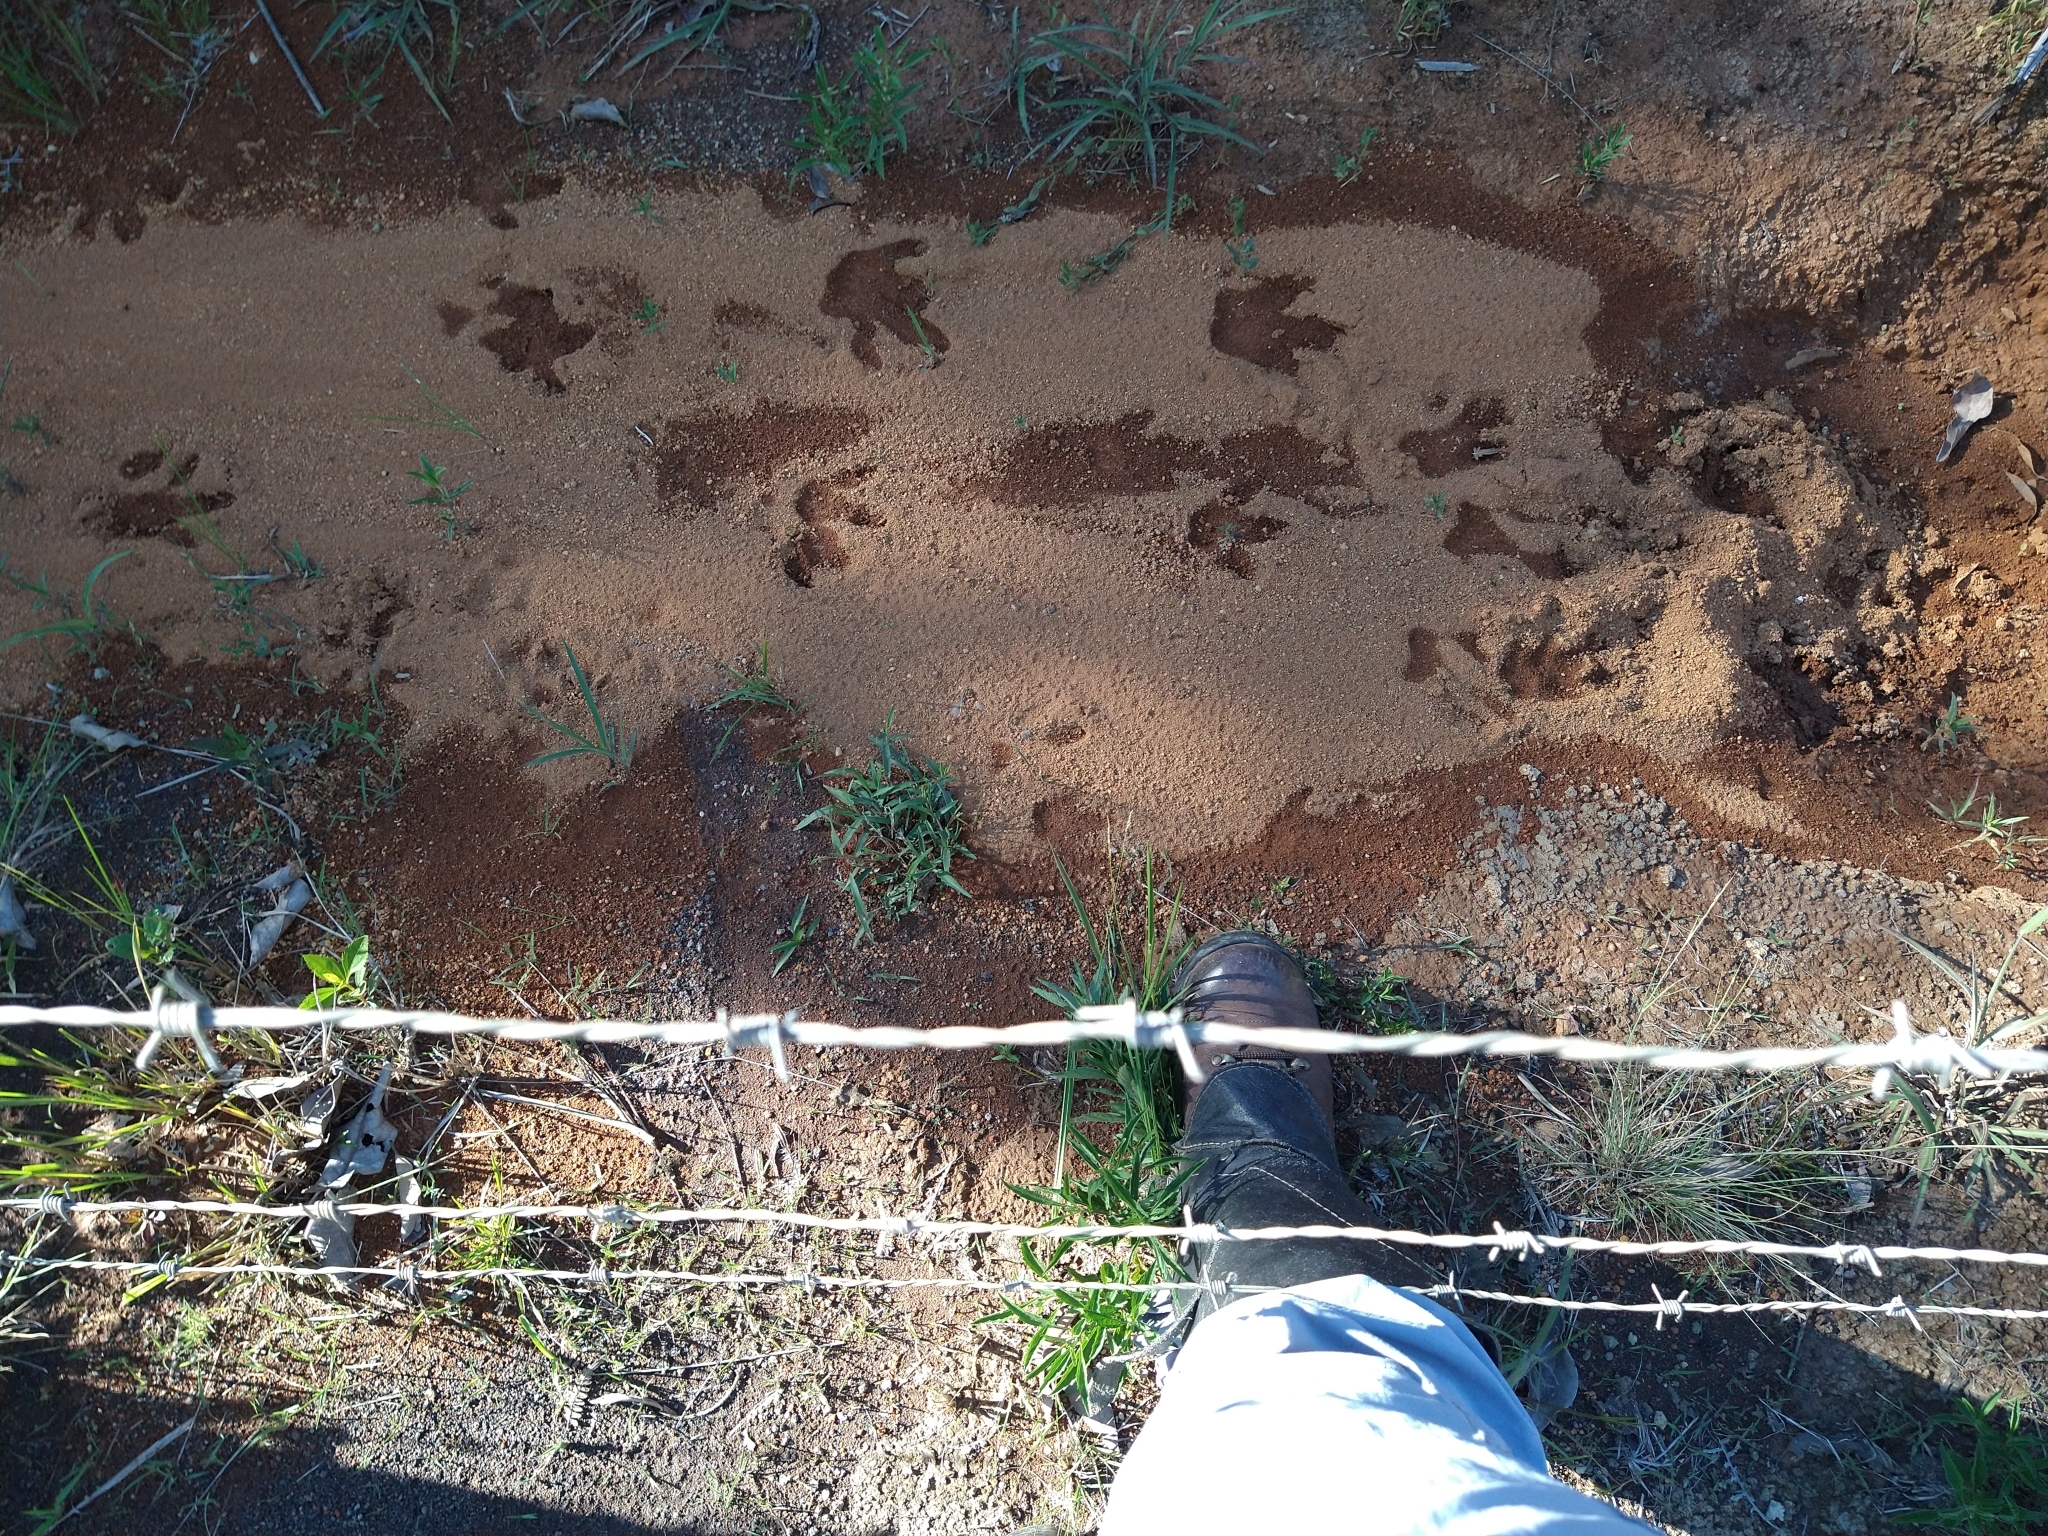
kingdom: Animalia
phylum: Chordata
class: Mammalia
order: Rodentia
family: Caviidae
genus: Hydrochoerus
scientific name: Hydrochoerus hydrochaeris
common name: Capybara
